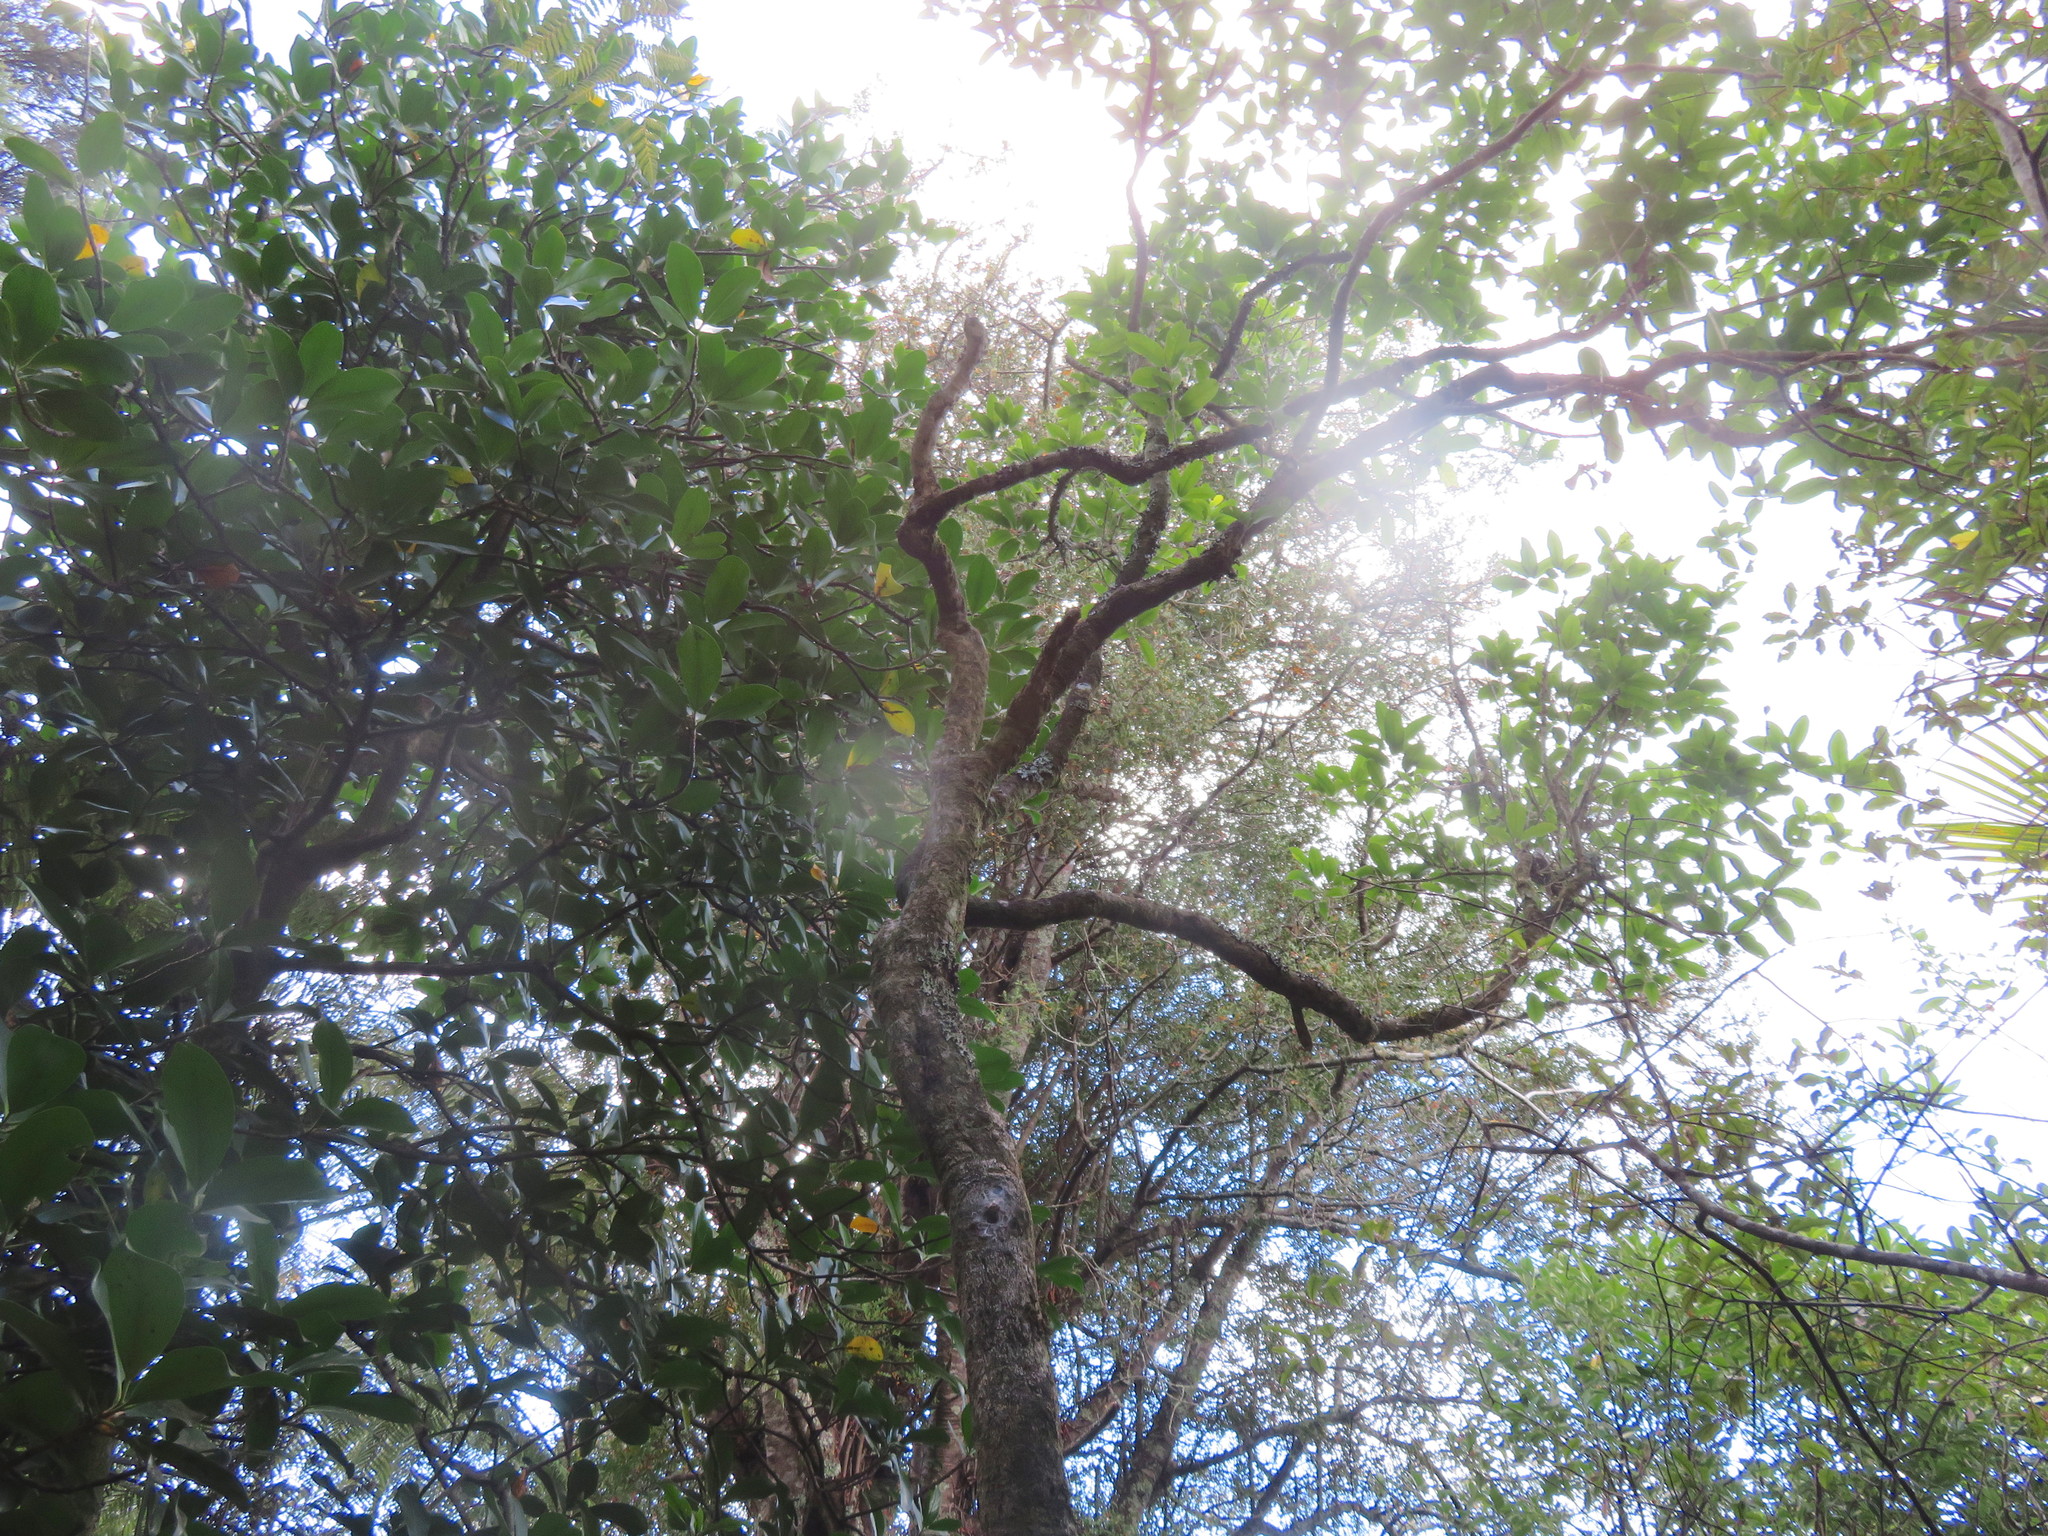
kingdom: Plantae
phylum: Tracheophyta
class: Pinopsida
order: Pinales
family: Phyllocladaceae
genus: Phyllocladus
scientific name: Phyllocladus trichomanoides
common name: Celery pine
